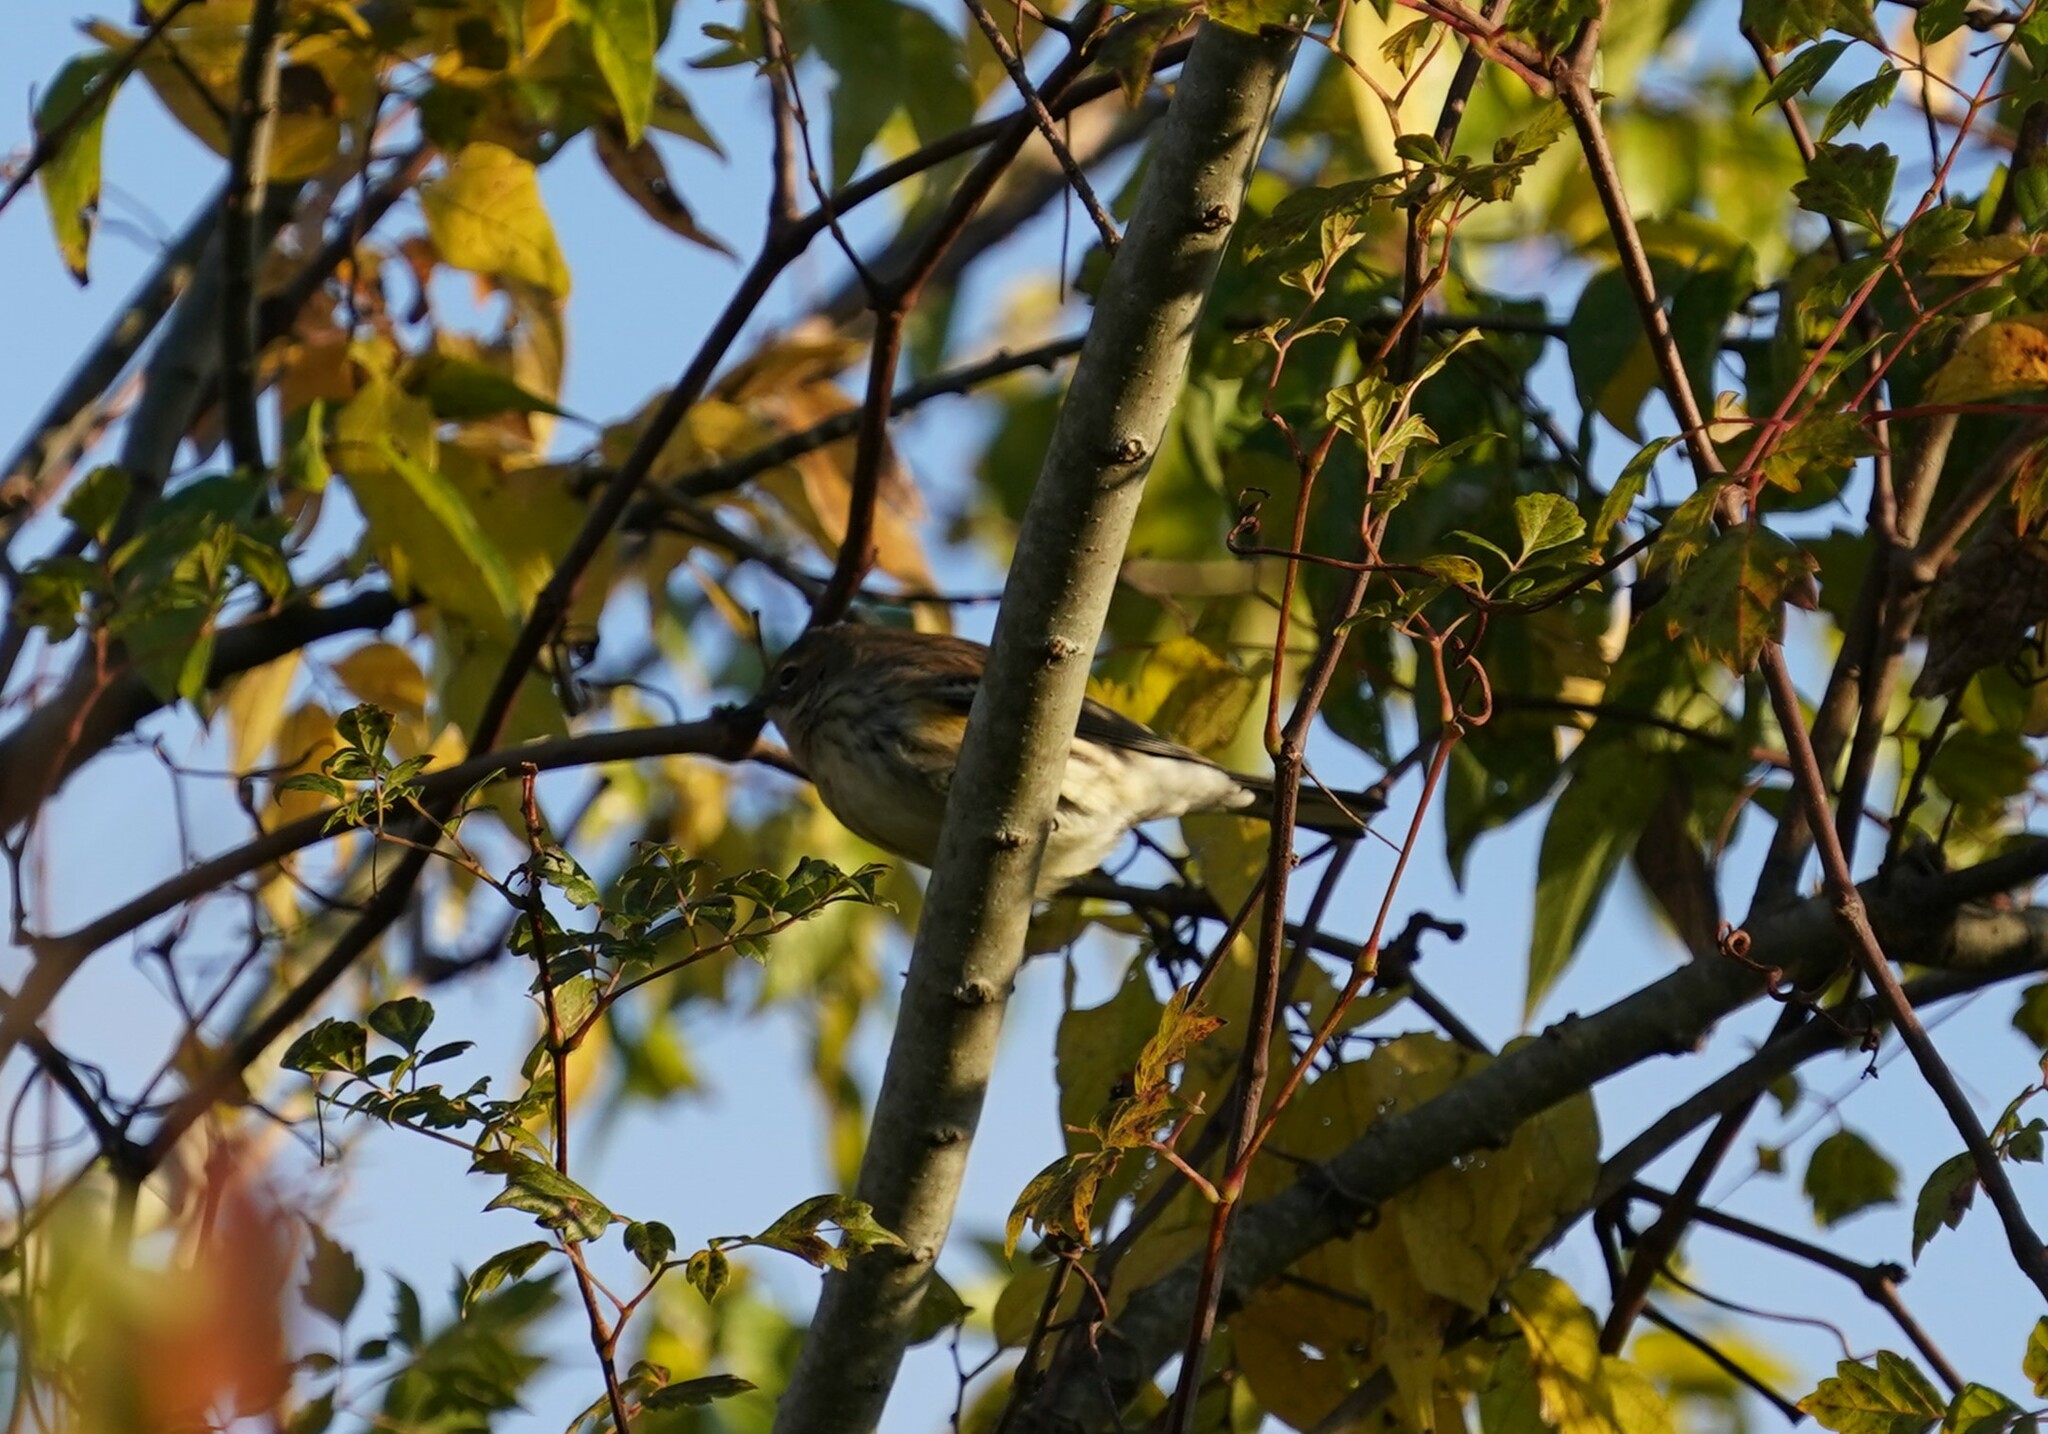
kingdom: Animalia
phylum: Chordata
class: Aves
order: Passeriformes
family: Parulidae
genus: Setophaga
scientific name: Setophaga coronata
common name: Myrtle warbler
